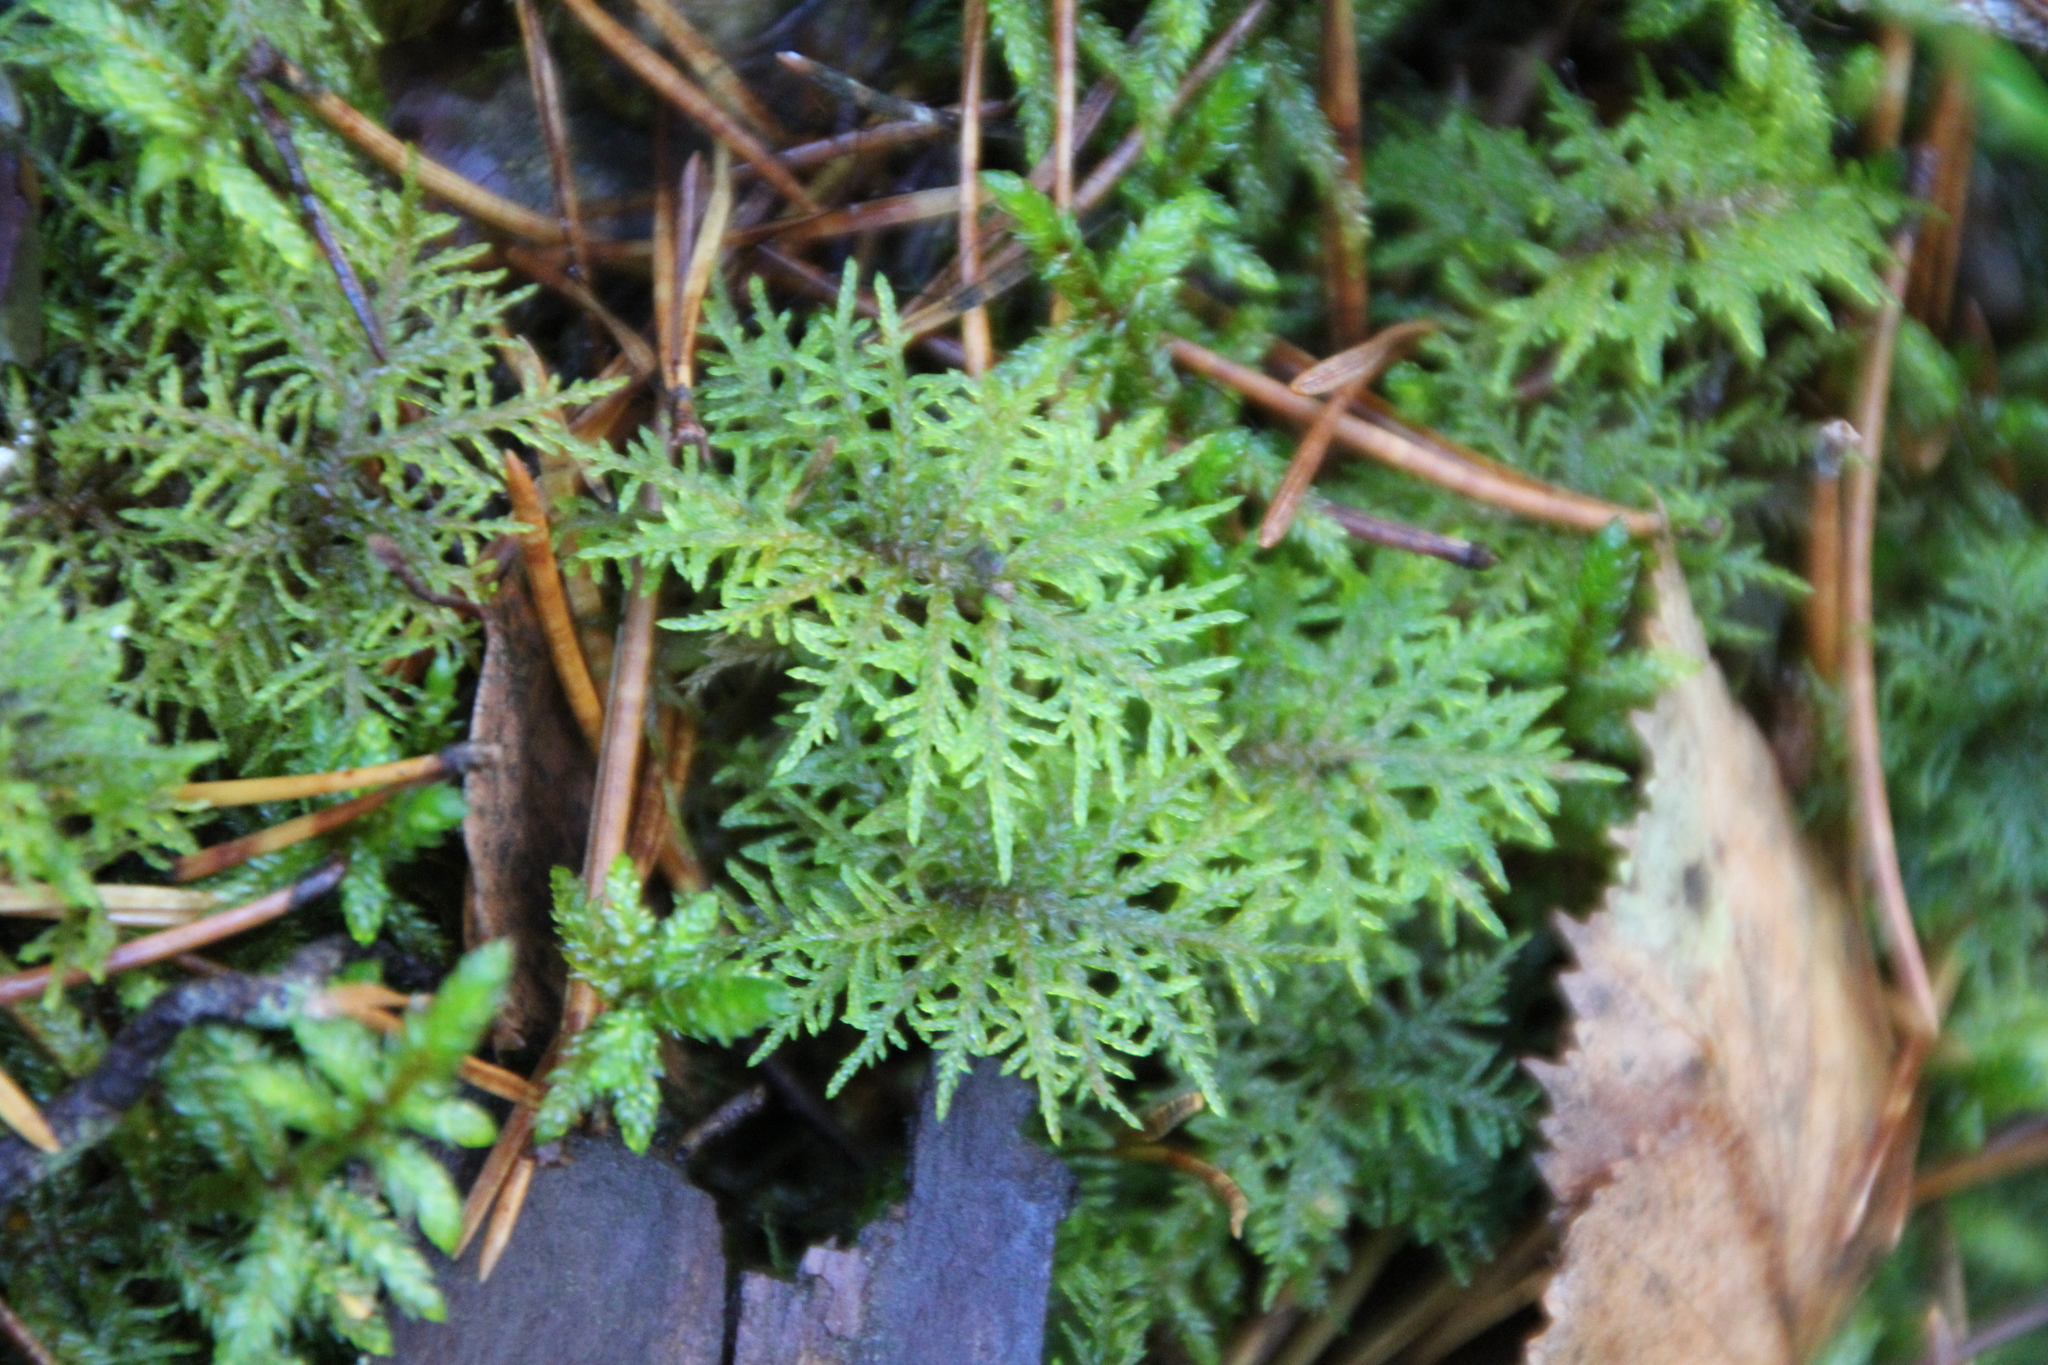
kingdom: Plantae
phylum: Bryophyta
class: Bryopsida
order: Hypnales
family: Hylocomiaceae
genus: Hylocomium
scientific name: Hylocomium splendens
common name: Stairstep moss
